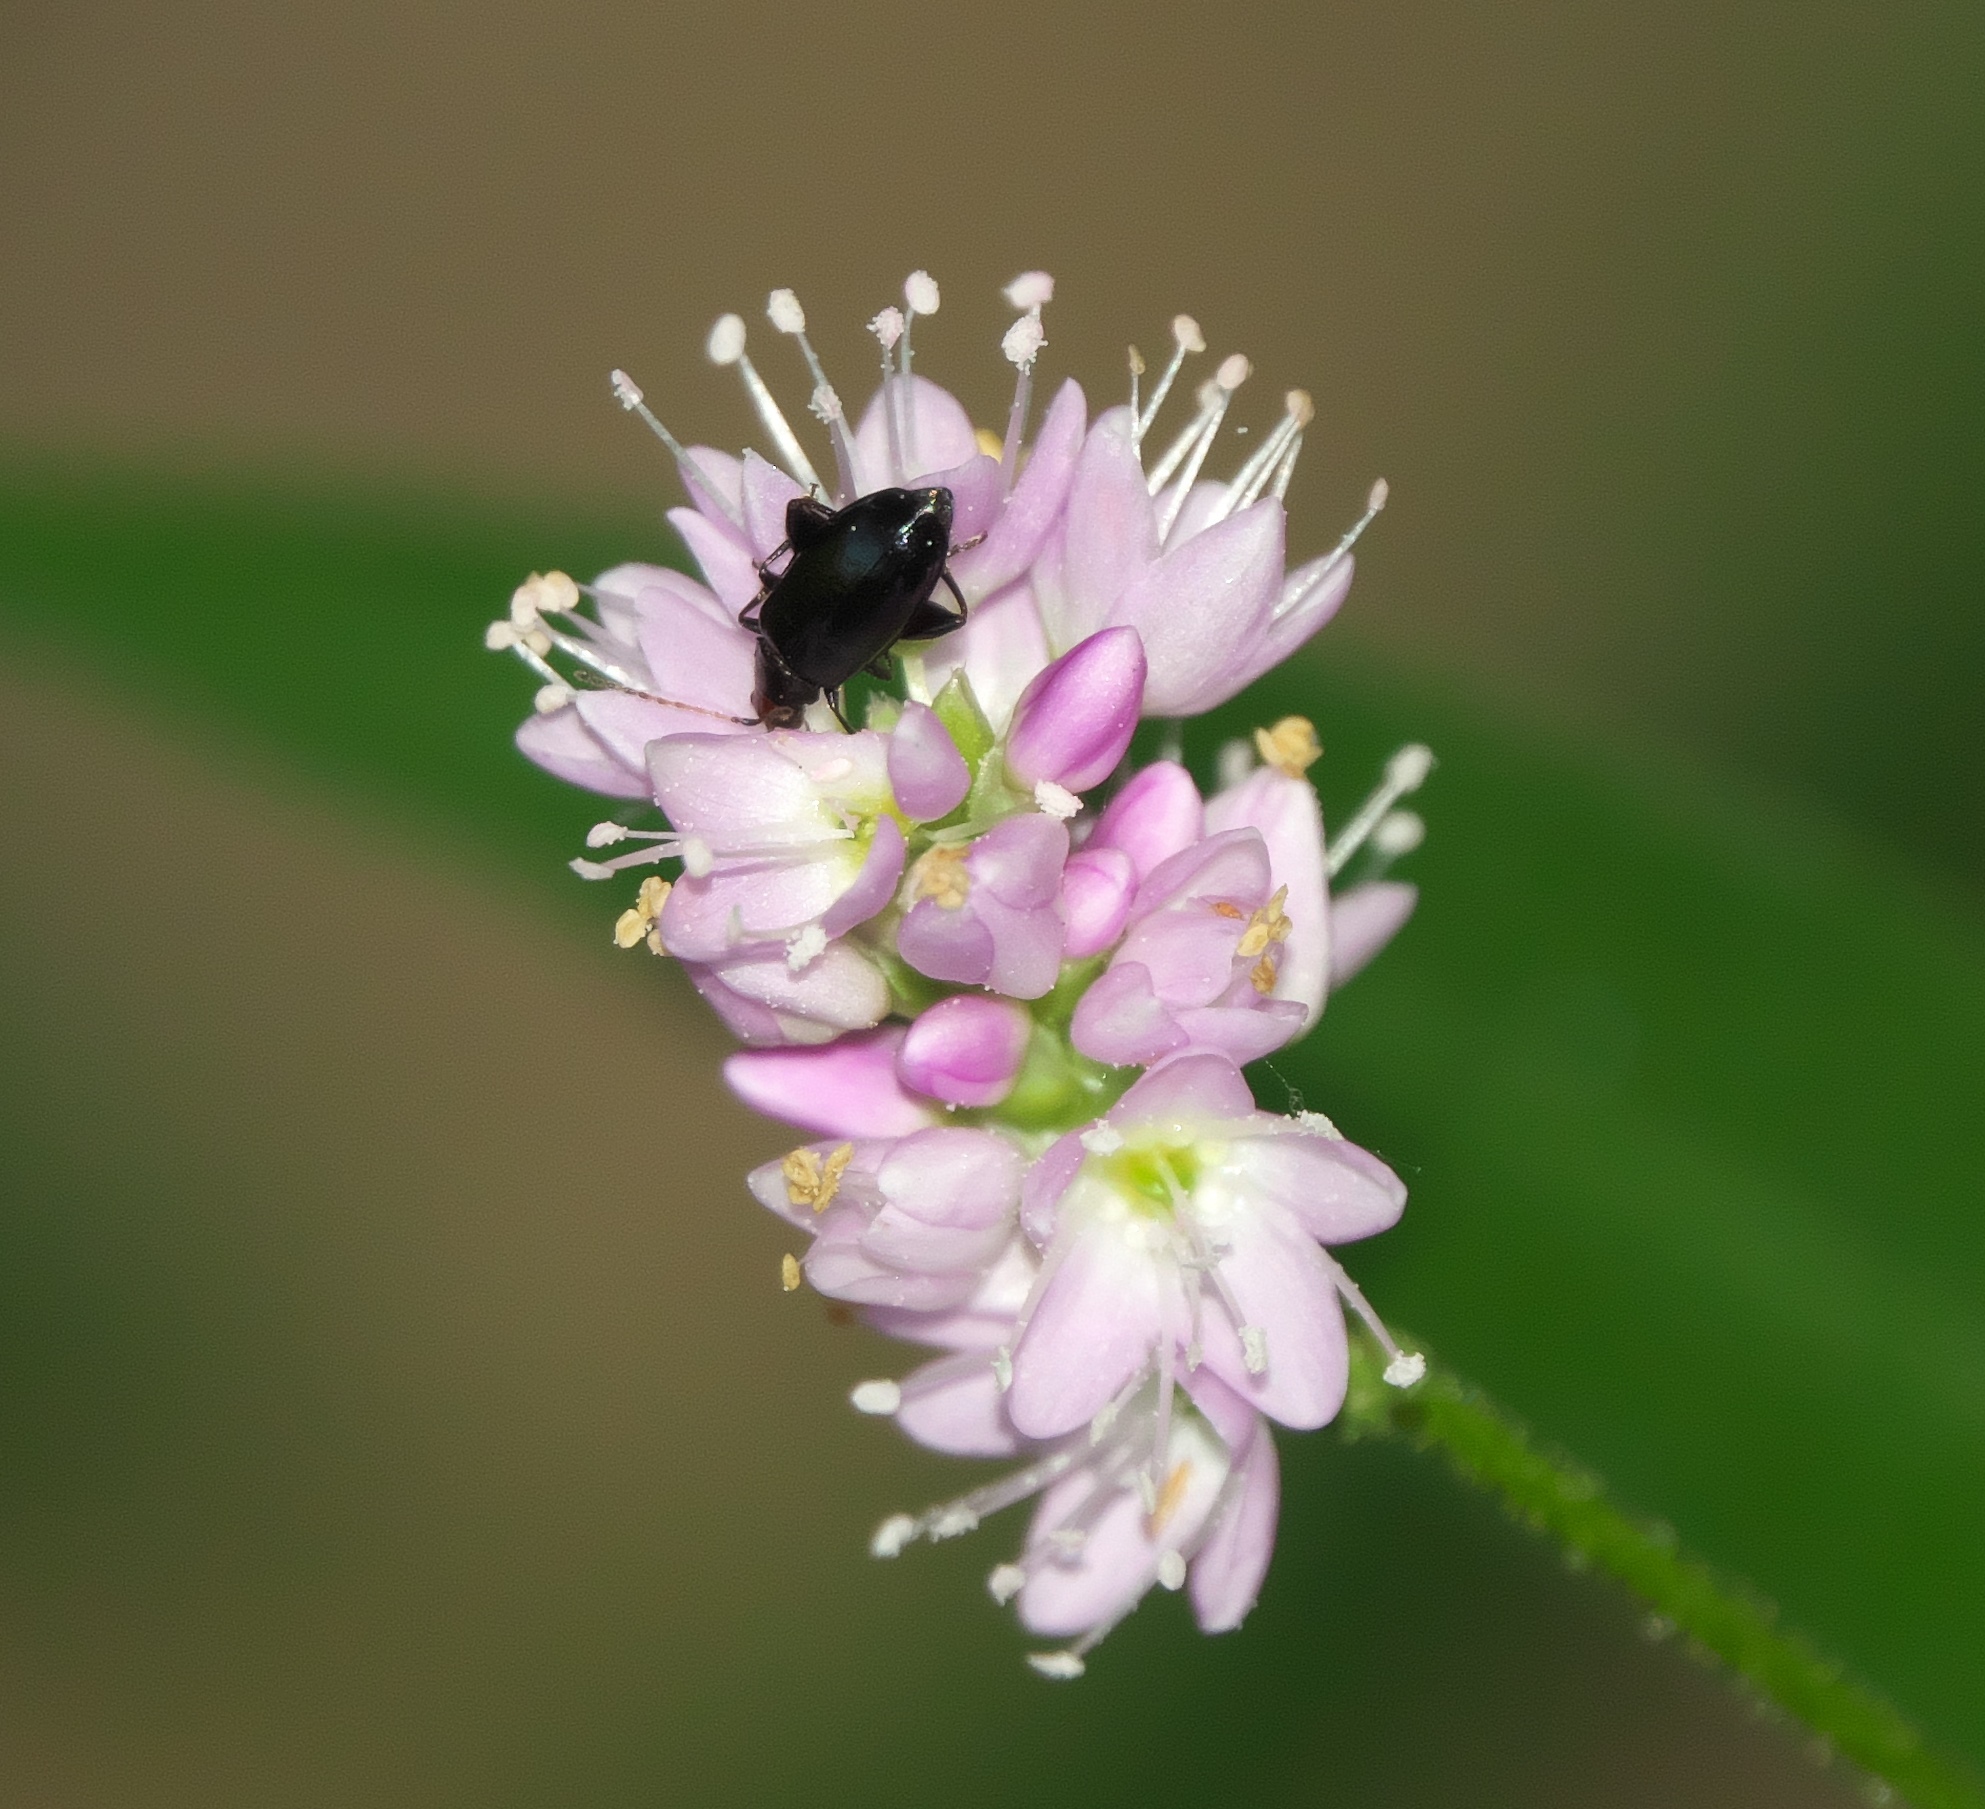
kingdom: Animalia
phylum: Arthropoda
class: Insecta
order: Coleoptera
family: Chrysomelidae
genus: Systena
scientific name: Systena frontalis
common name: Red-headed flea beetle
